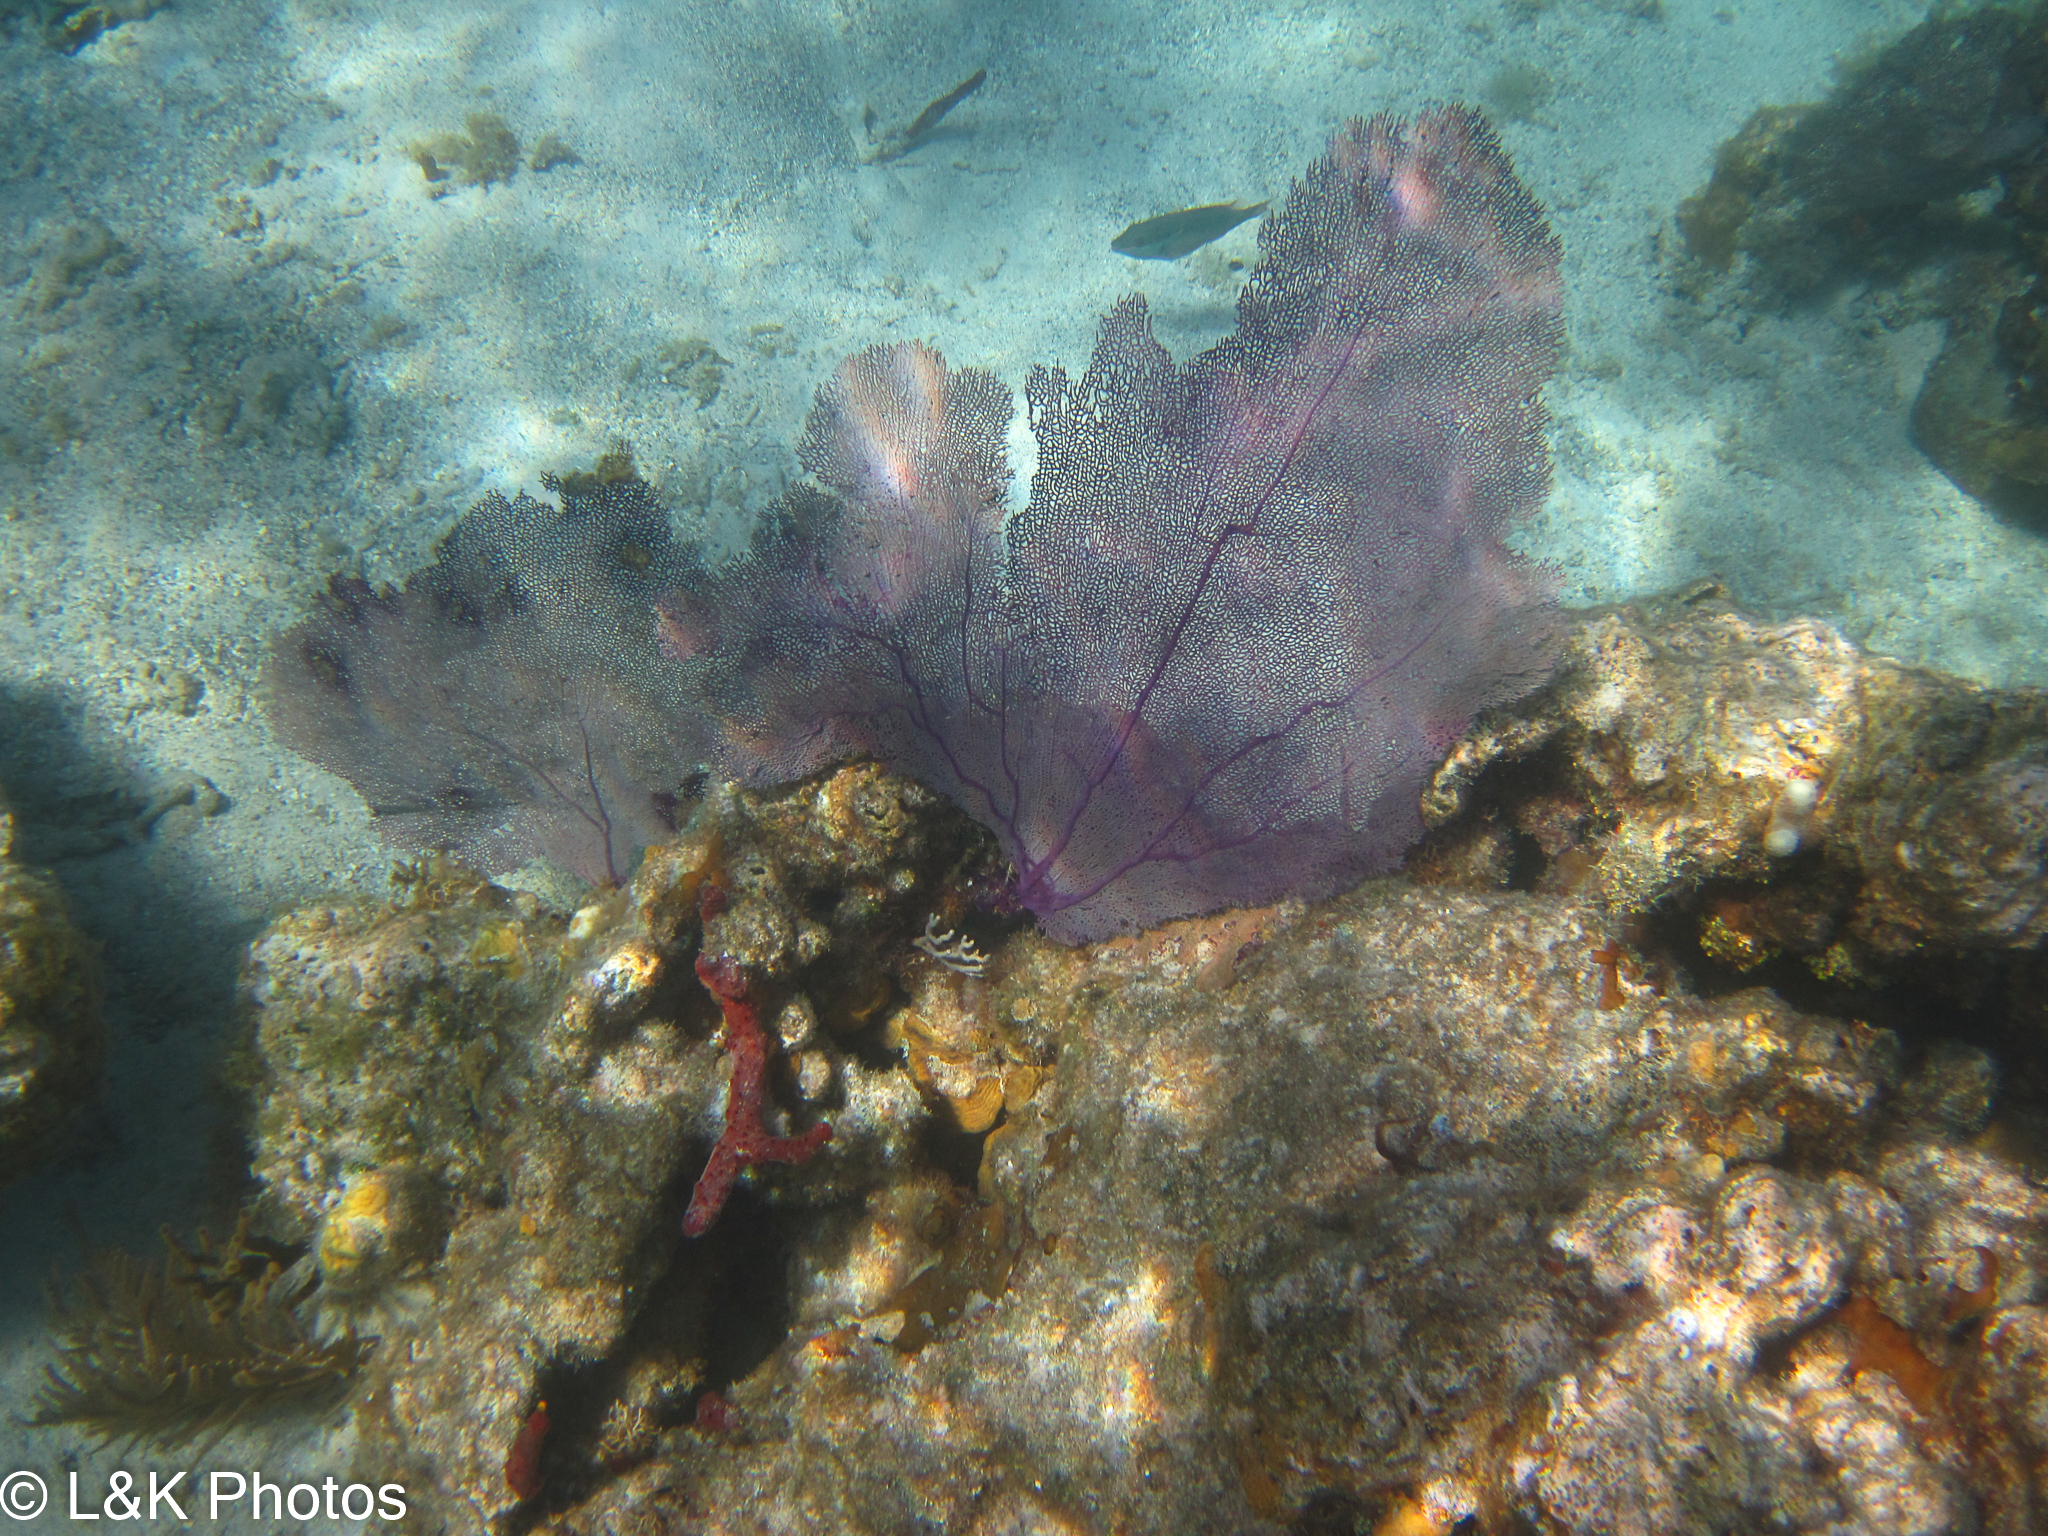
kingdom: Animalia
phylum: Cnidaria
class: Anthozoa
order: Malacalcyonacea
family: Gorgoniidae
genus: Gorgonia
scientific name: Gorgonia ventalina
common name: Common sea fan
